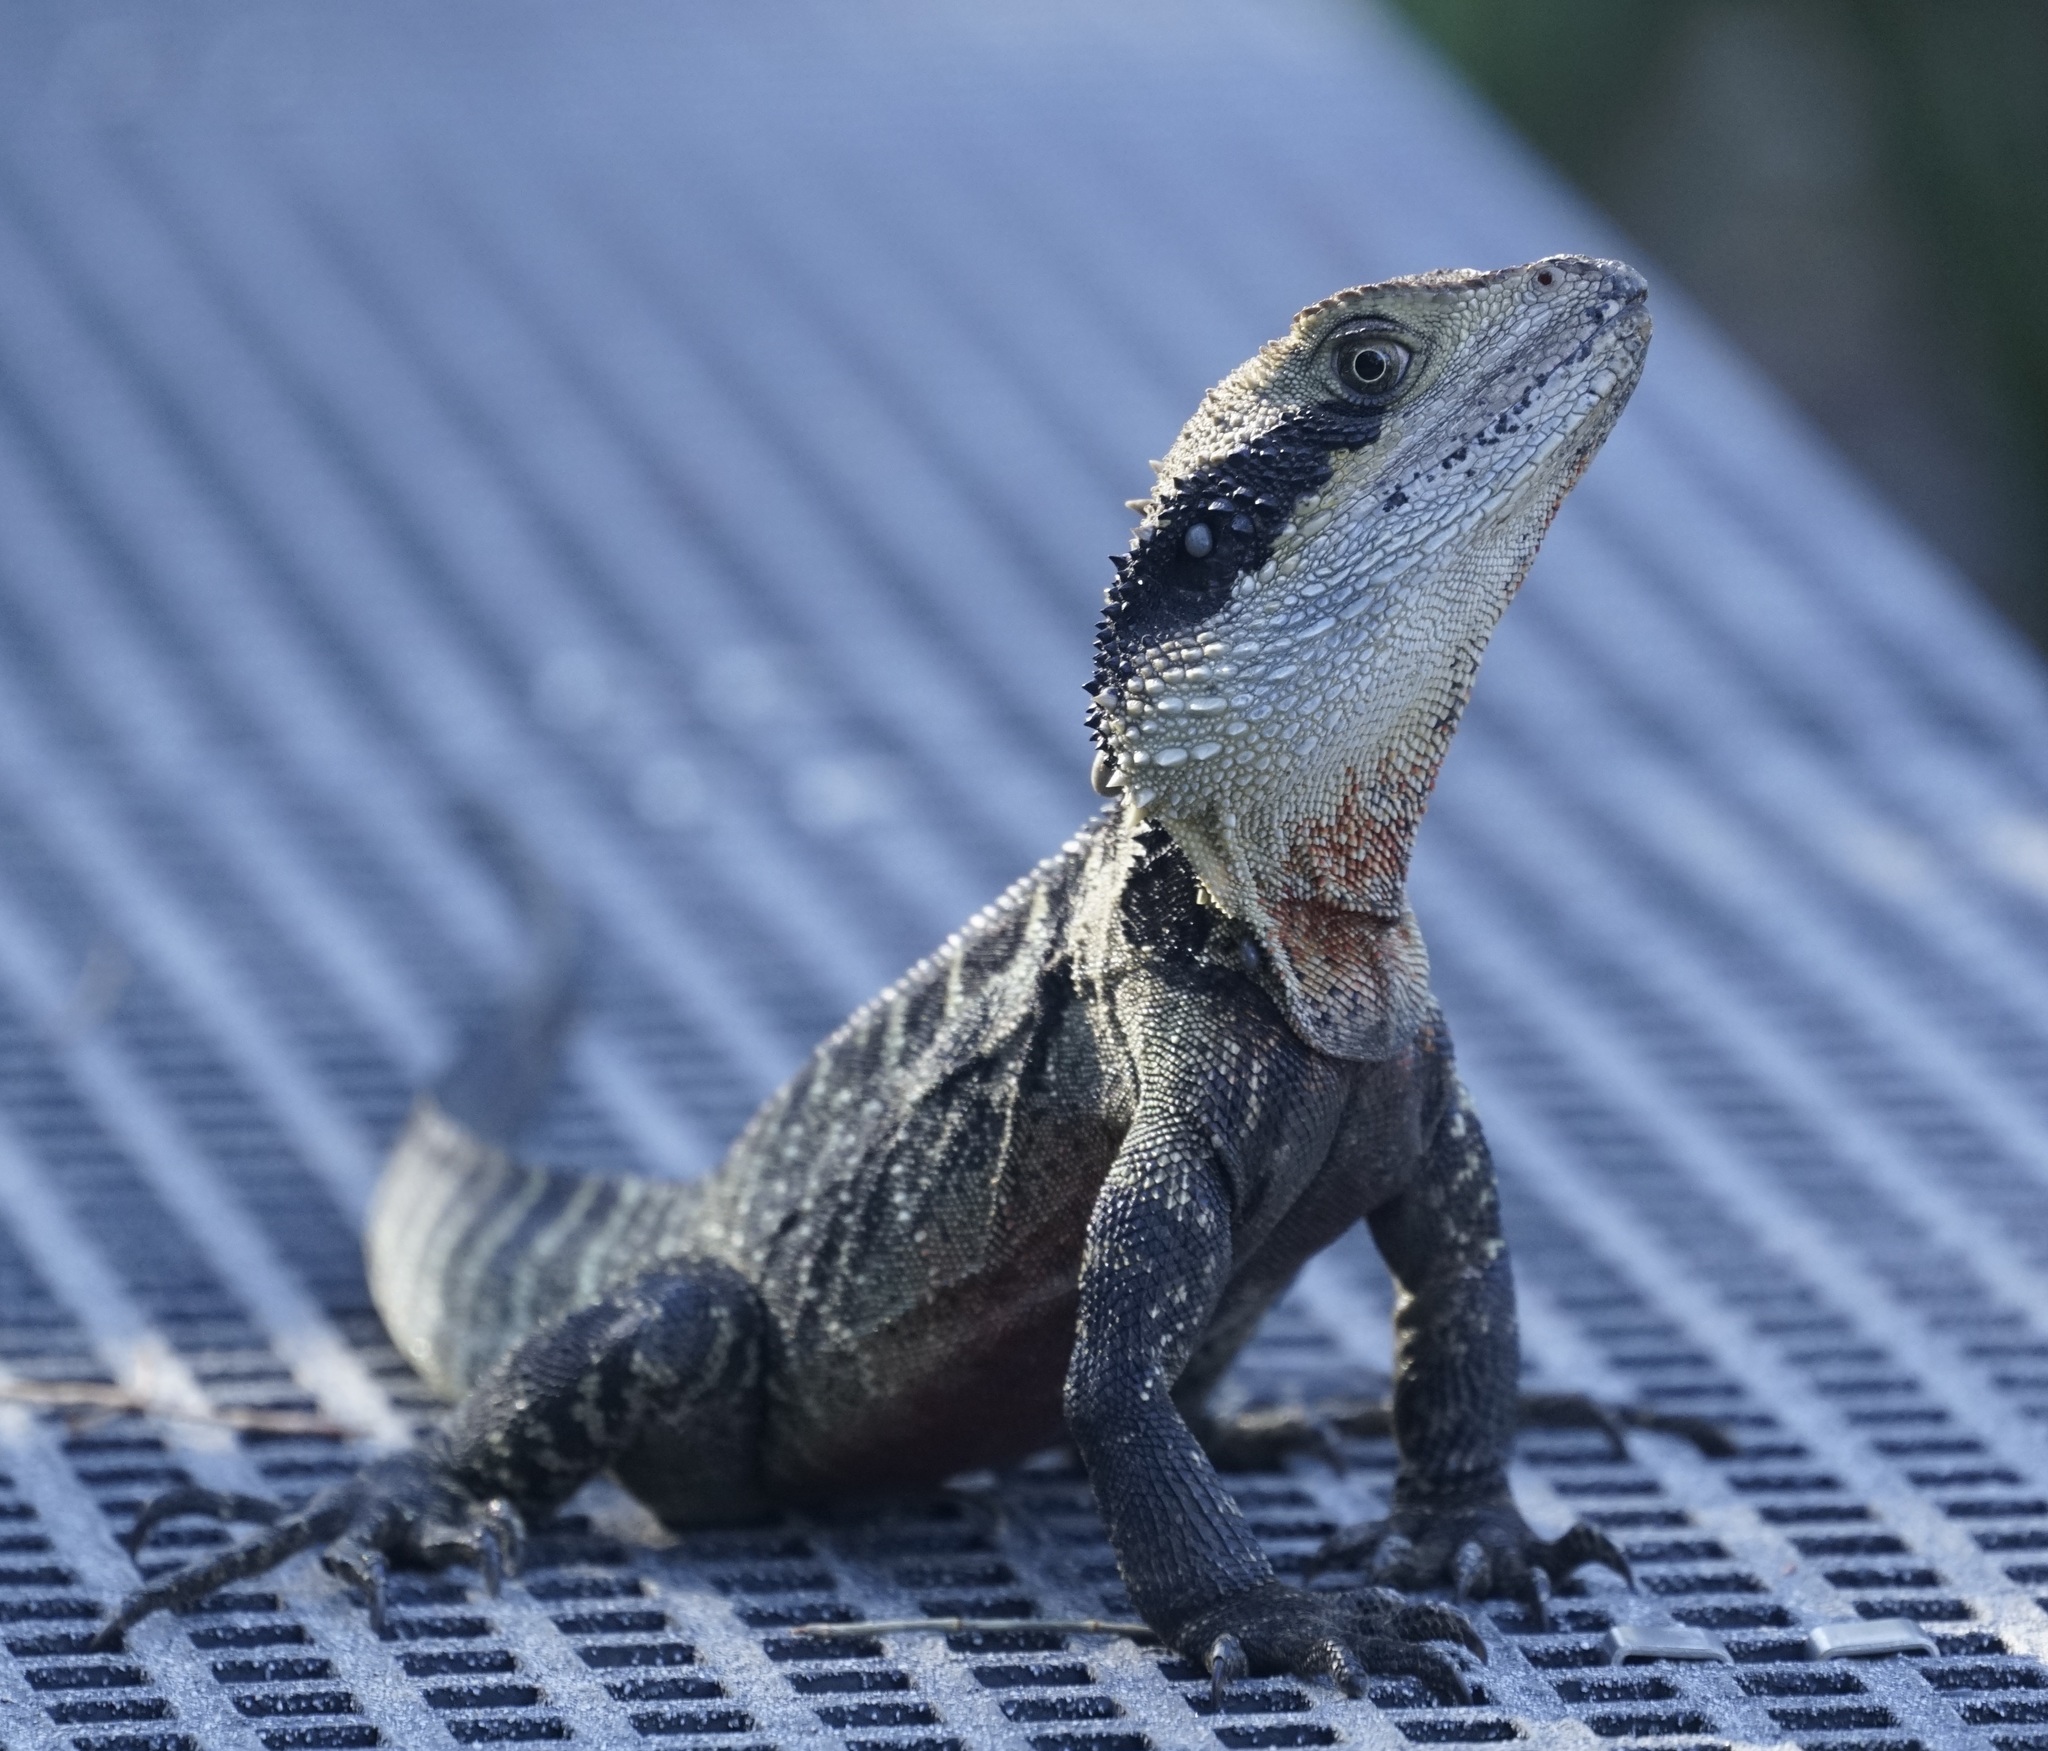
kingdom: Animalia
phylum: Chordata
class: Squamata
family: Agamidae
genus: Intellagama
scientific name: Intellagama lesueurii
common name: Eastern water dragon
